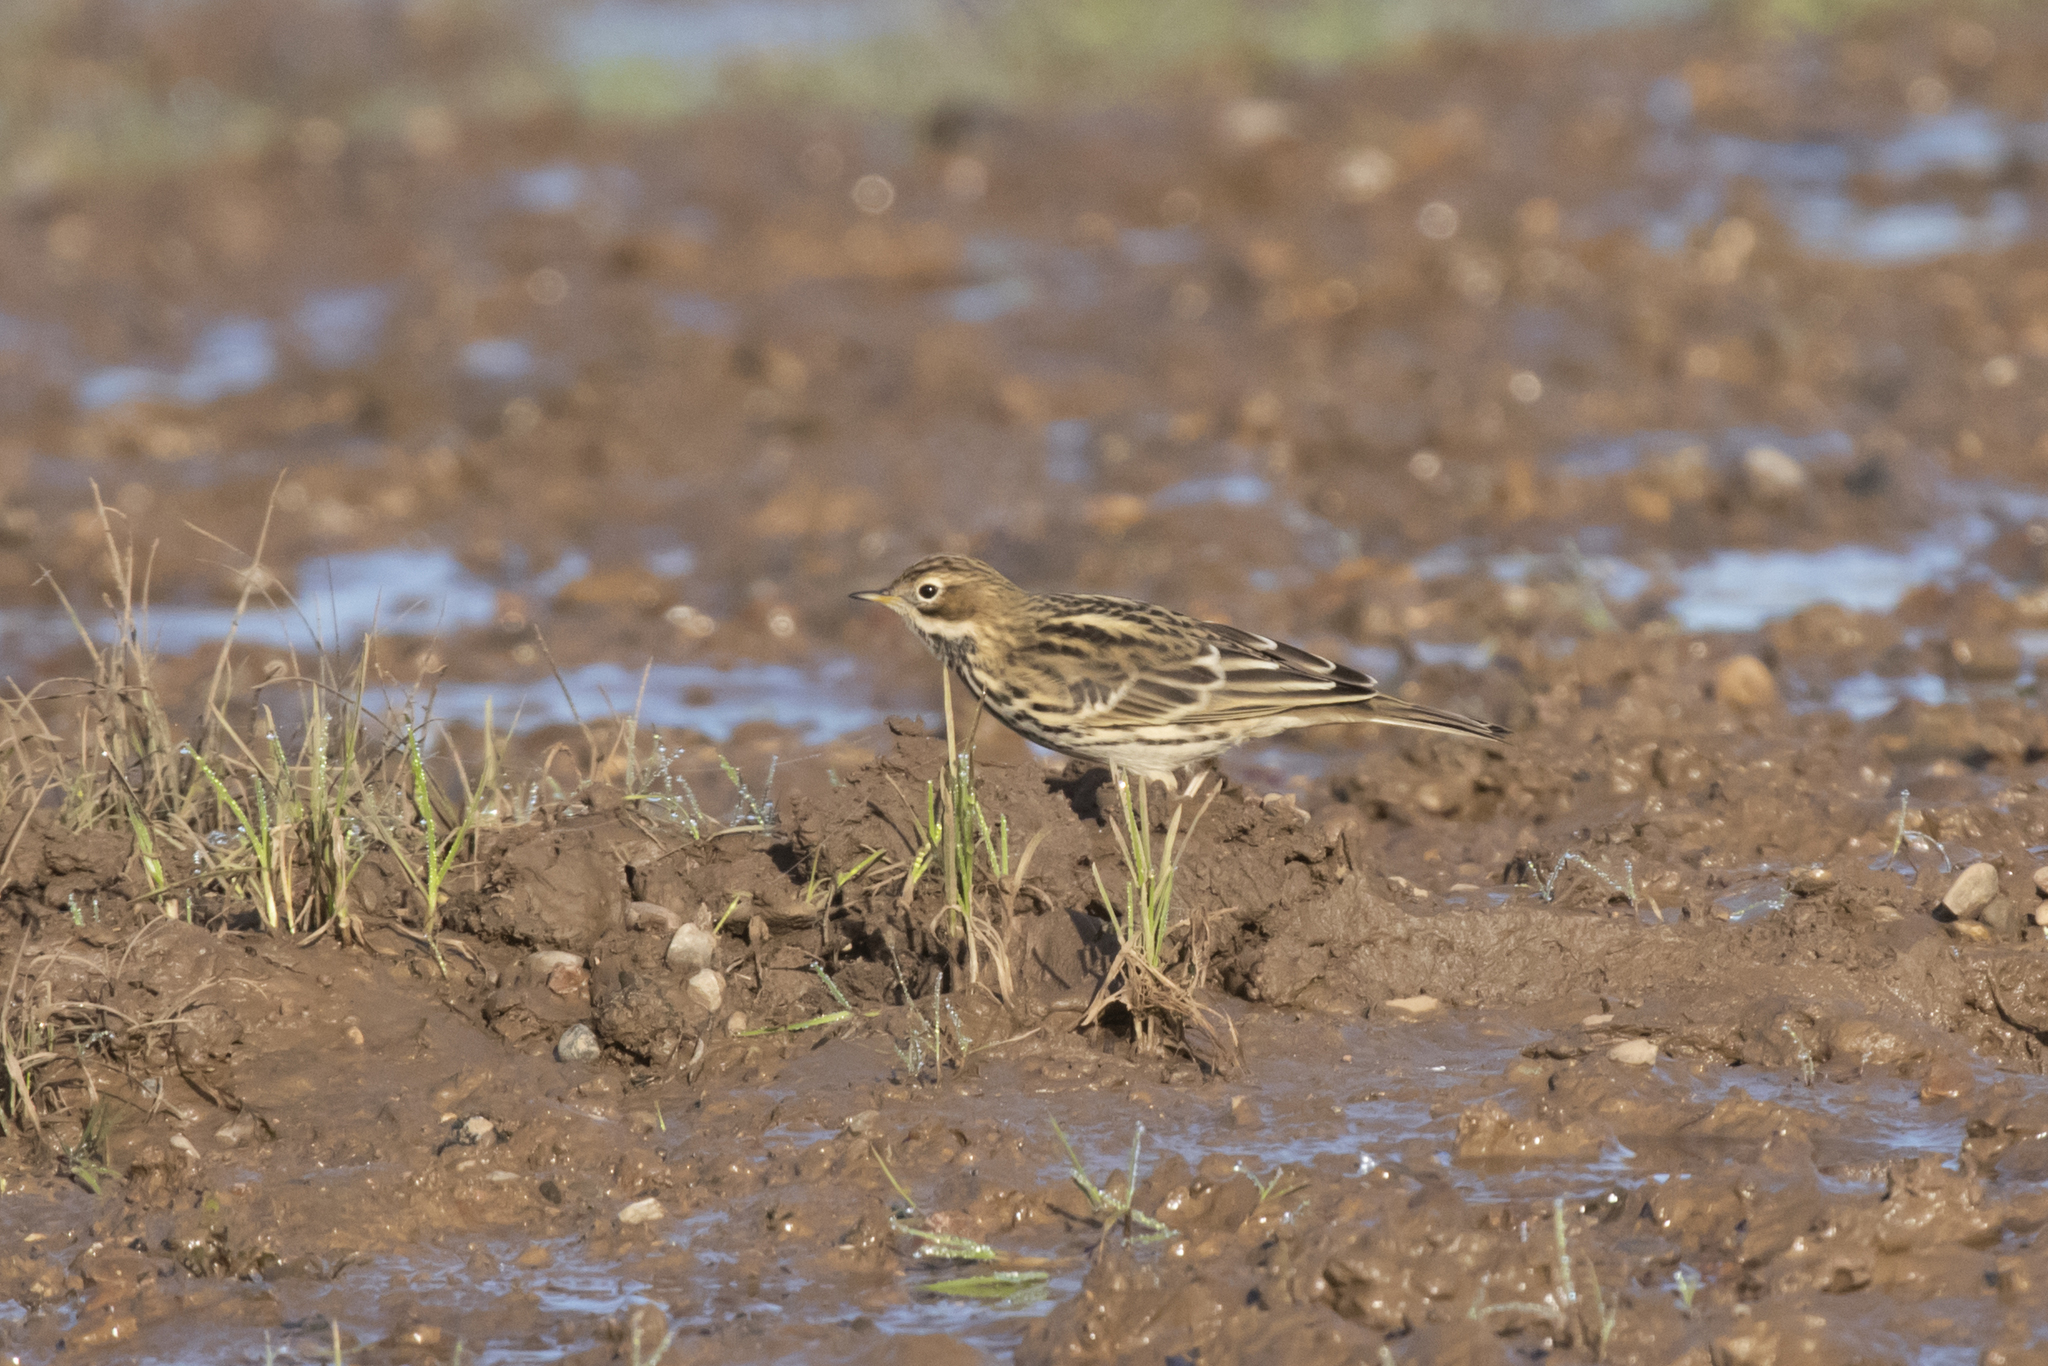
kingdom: Animalia
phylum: Chordata
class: Aves
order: Passeriformes
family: Motacillidae
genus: Anthus
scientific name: Anthus trivialis
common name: Tree pipit
